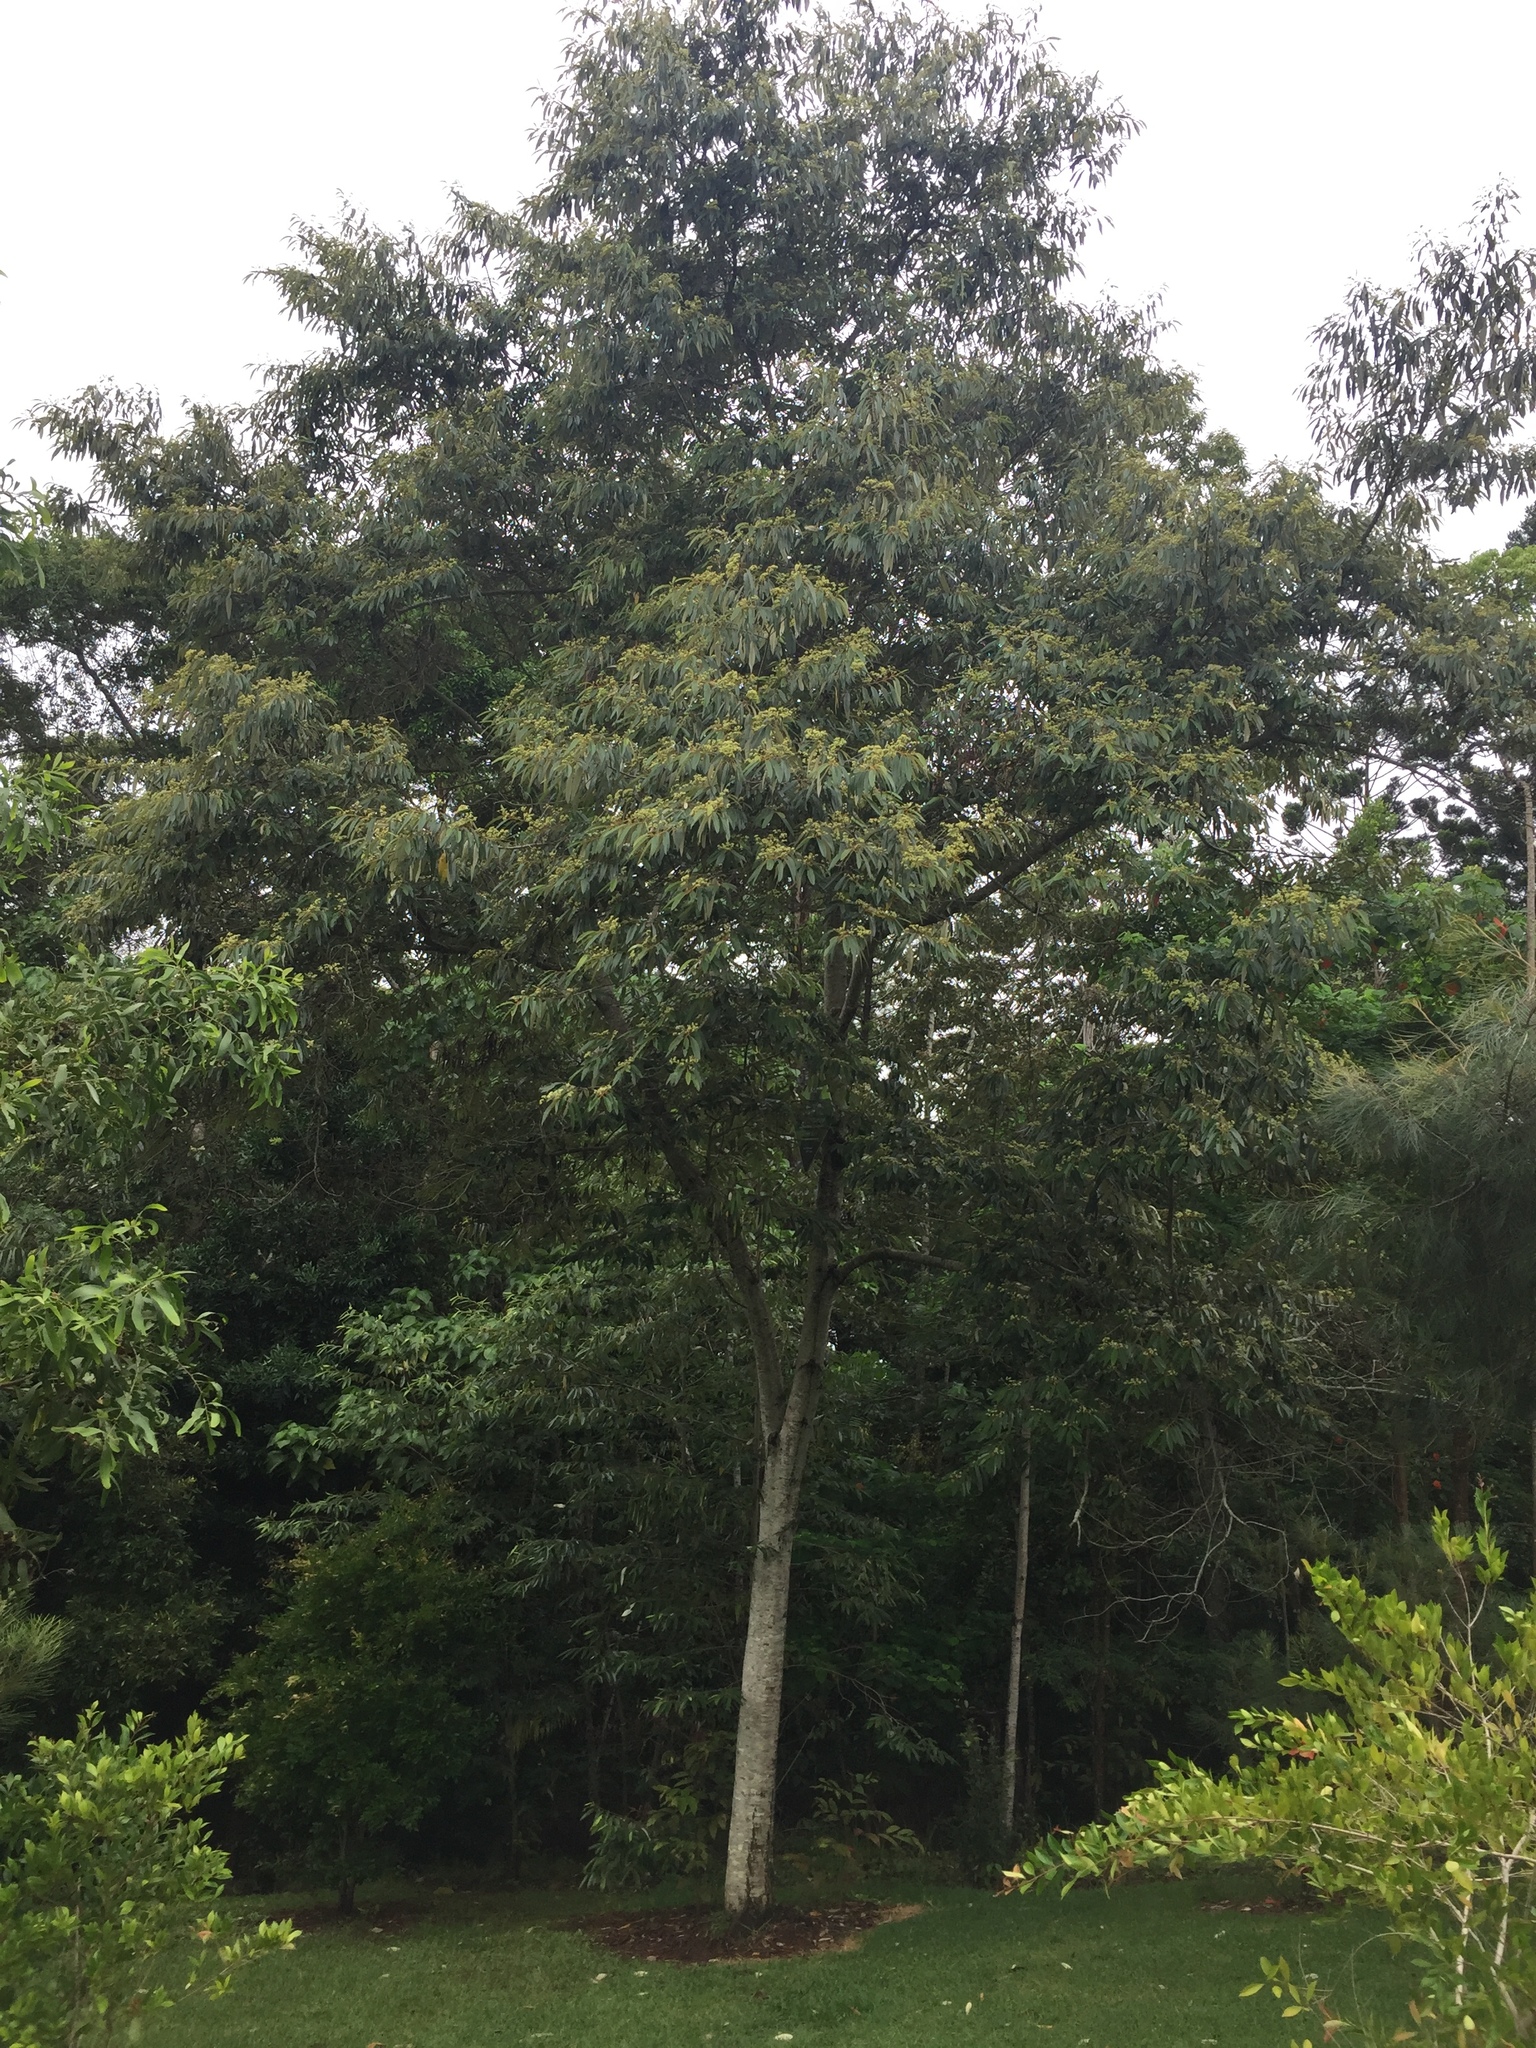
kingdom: Plantae
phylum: Tracheophyta
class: Magnoliopsida
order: Rosales
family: Rhamnaceae
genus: Alphitonia
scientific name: Alphitonia
